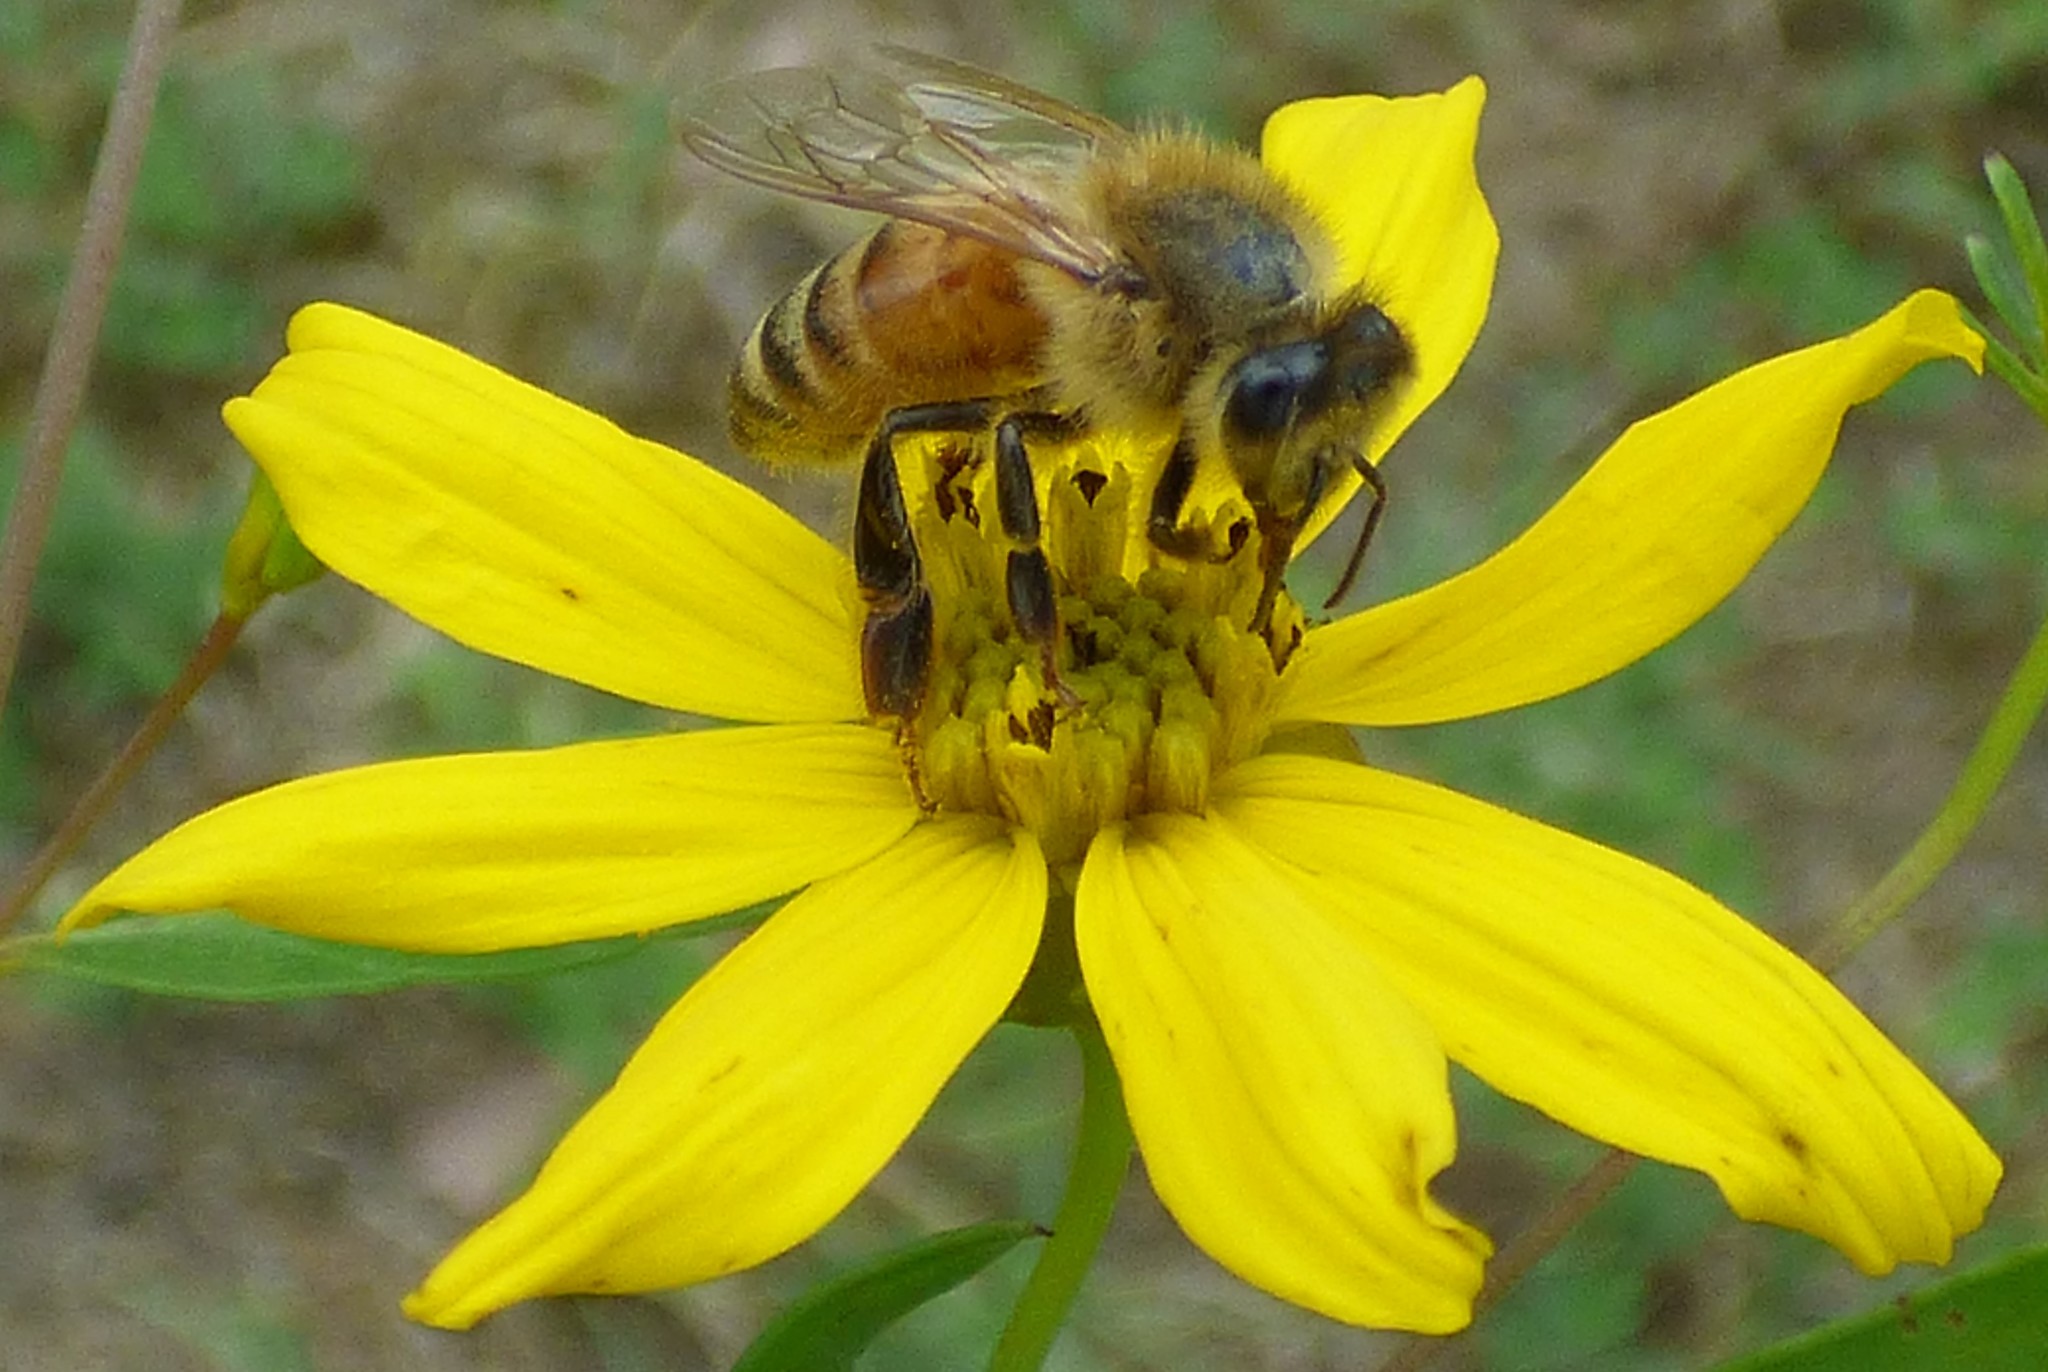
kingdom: Animalia
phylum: Arthropoda
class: Insecta
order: Hymenoptera
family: Apidae
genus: Apis
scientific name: Apis mellifera
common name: Honey bee
